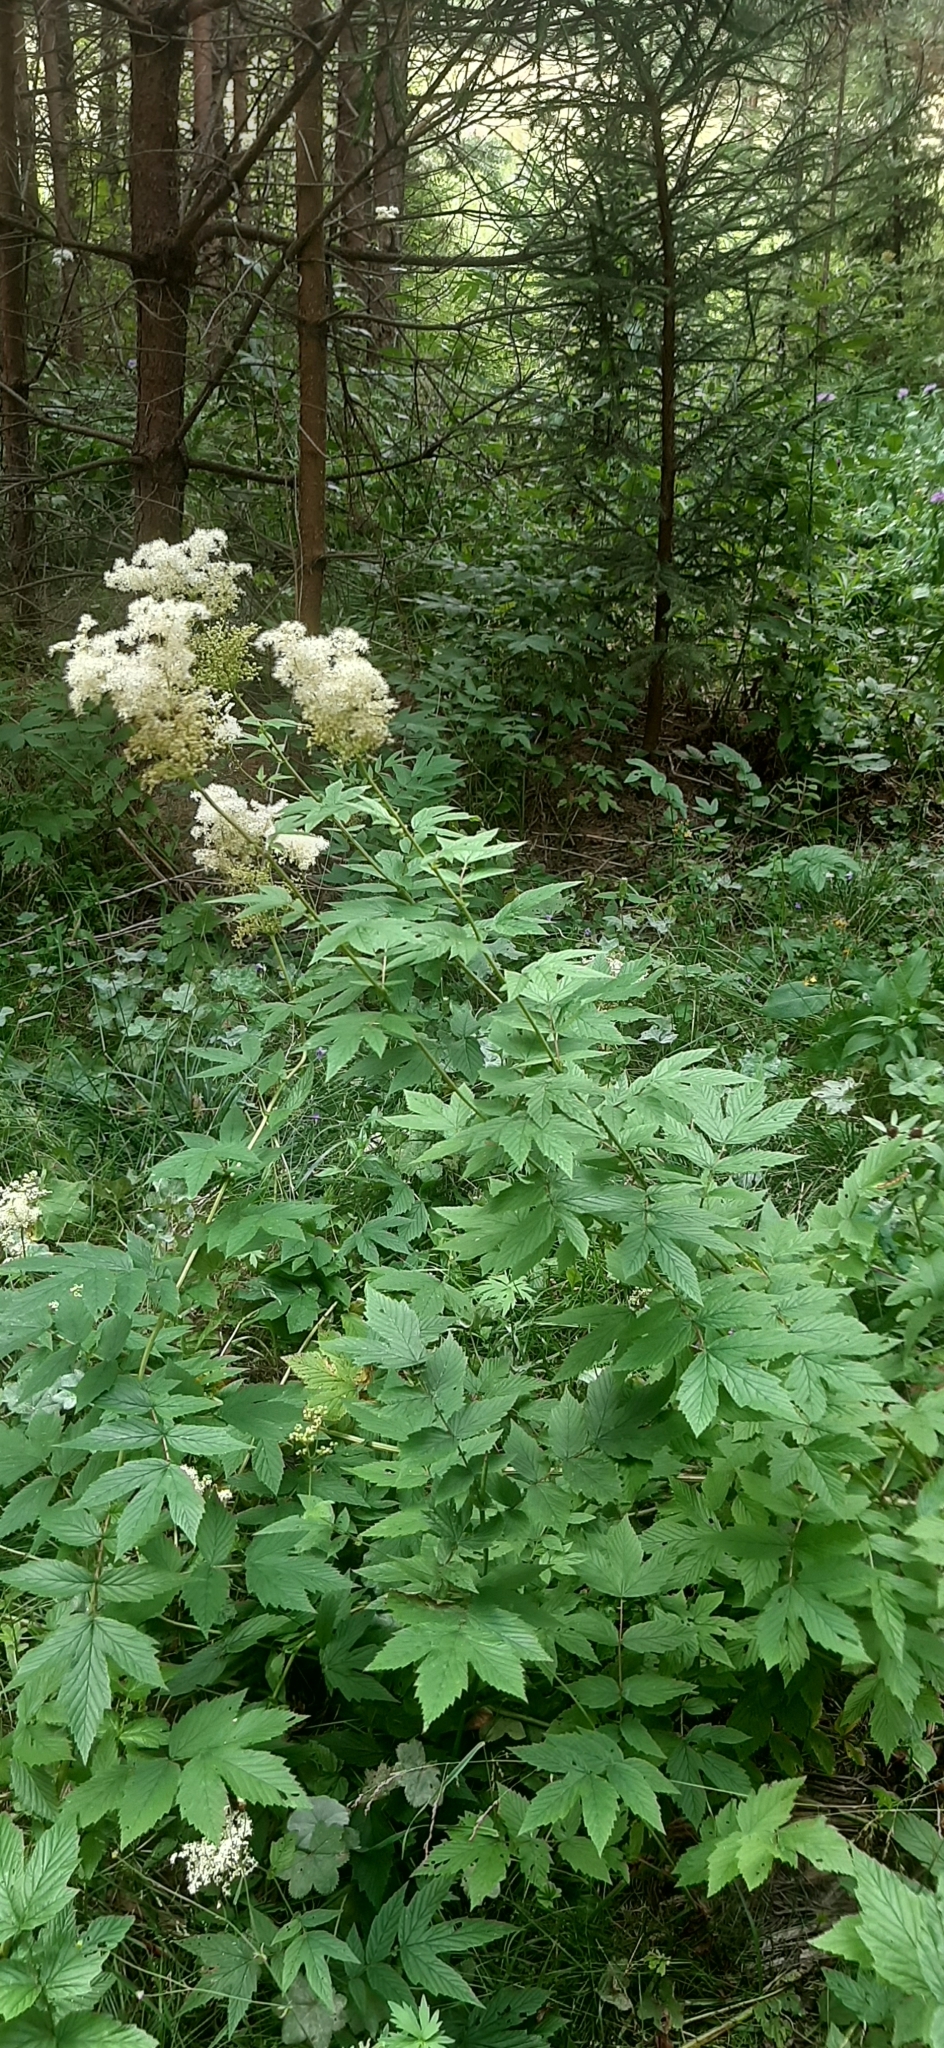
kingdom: Plantae
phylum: Tracheophyta
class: Magnoliopsida
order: Rosales
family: Rosaceae
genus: Filipendula
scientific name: Filipendula ulmaria
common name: Meadowsweet
